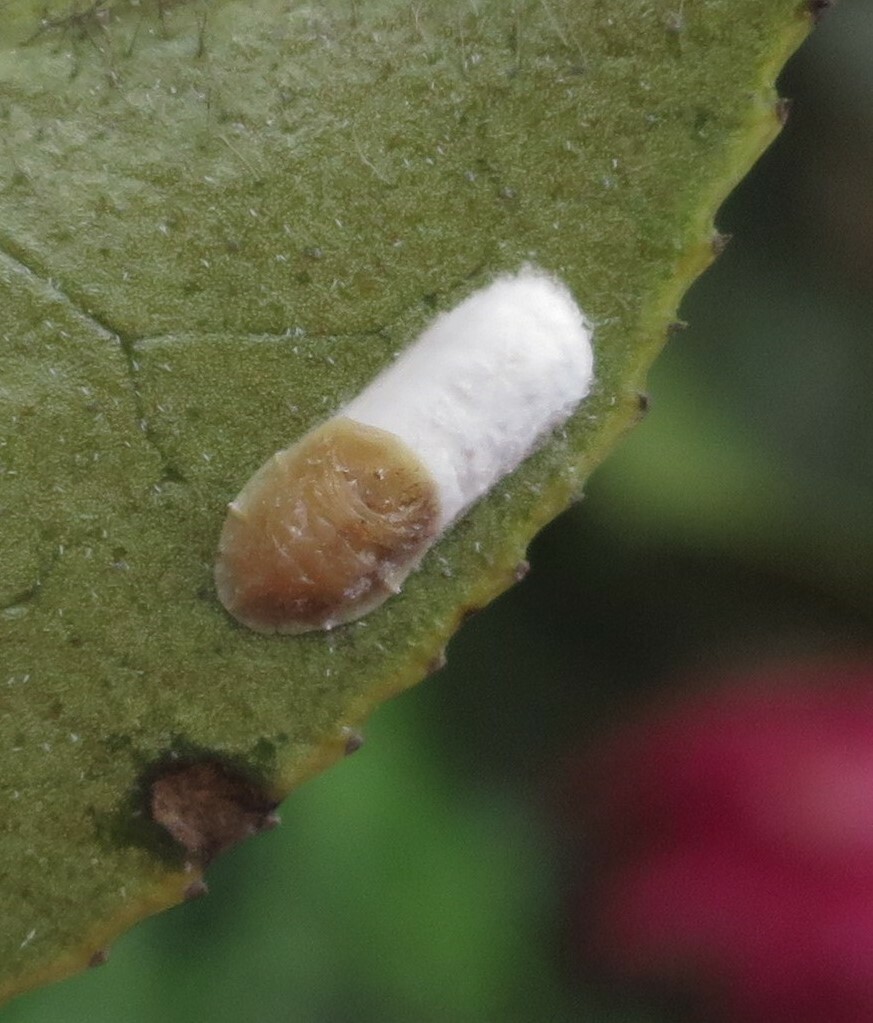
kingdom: Animalia
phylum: Arthropoda
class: Insecta
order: Hemiptera
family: Coccidae
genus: Pulvinaria
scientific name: Pulvinaria floccifera
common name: Cottony camellia scale
